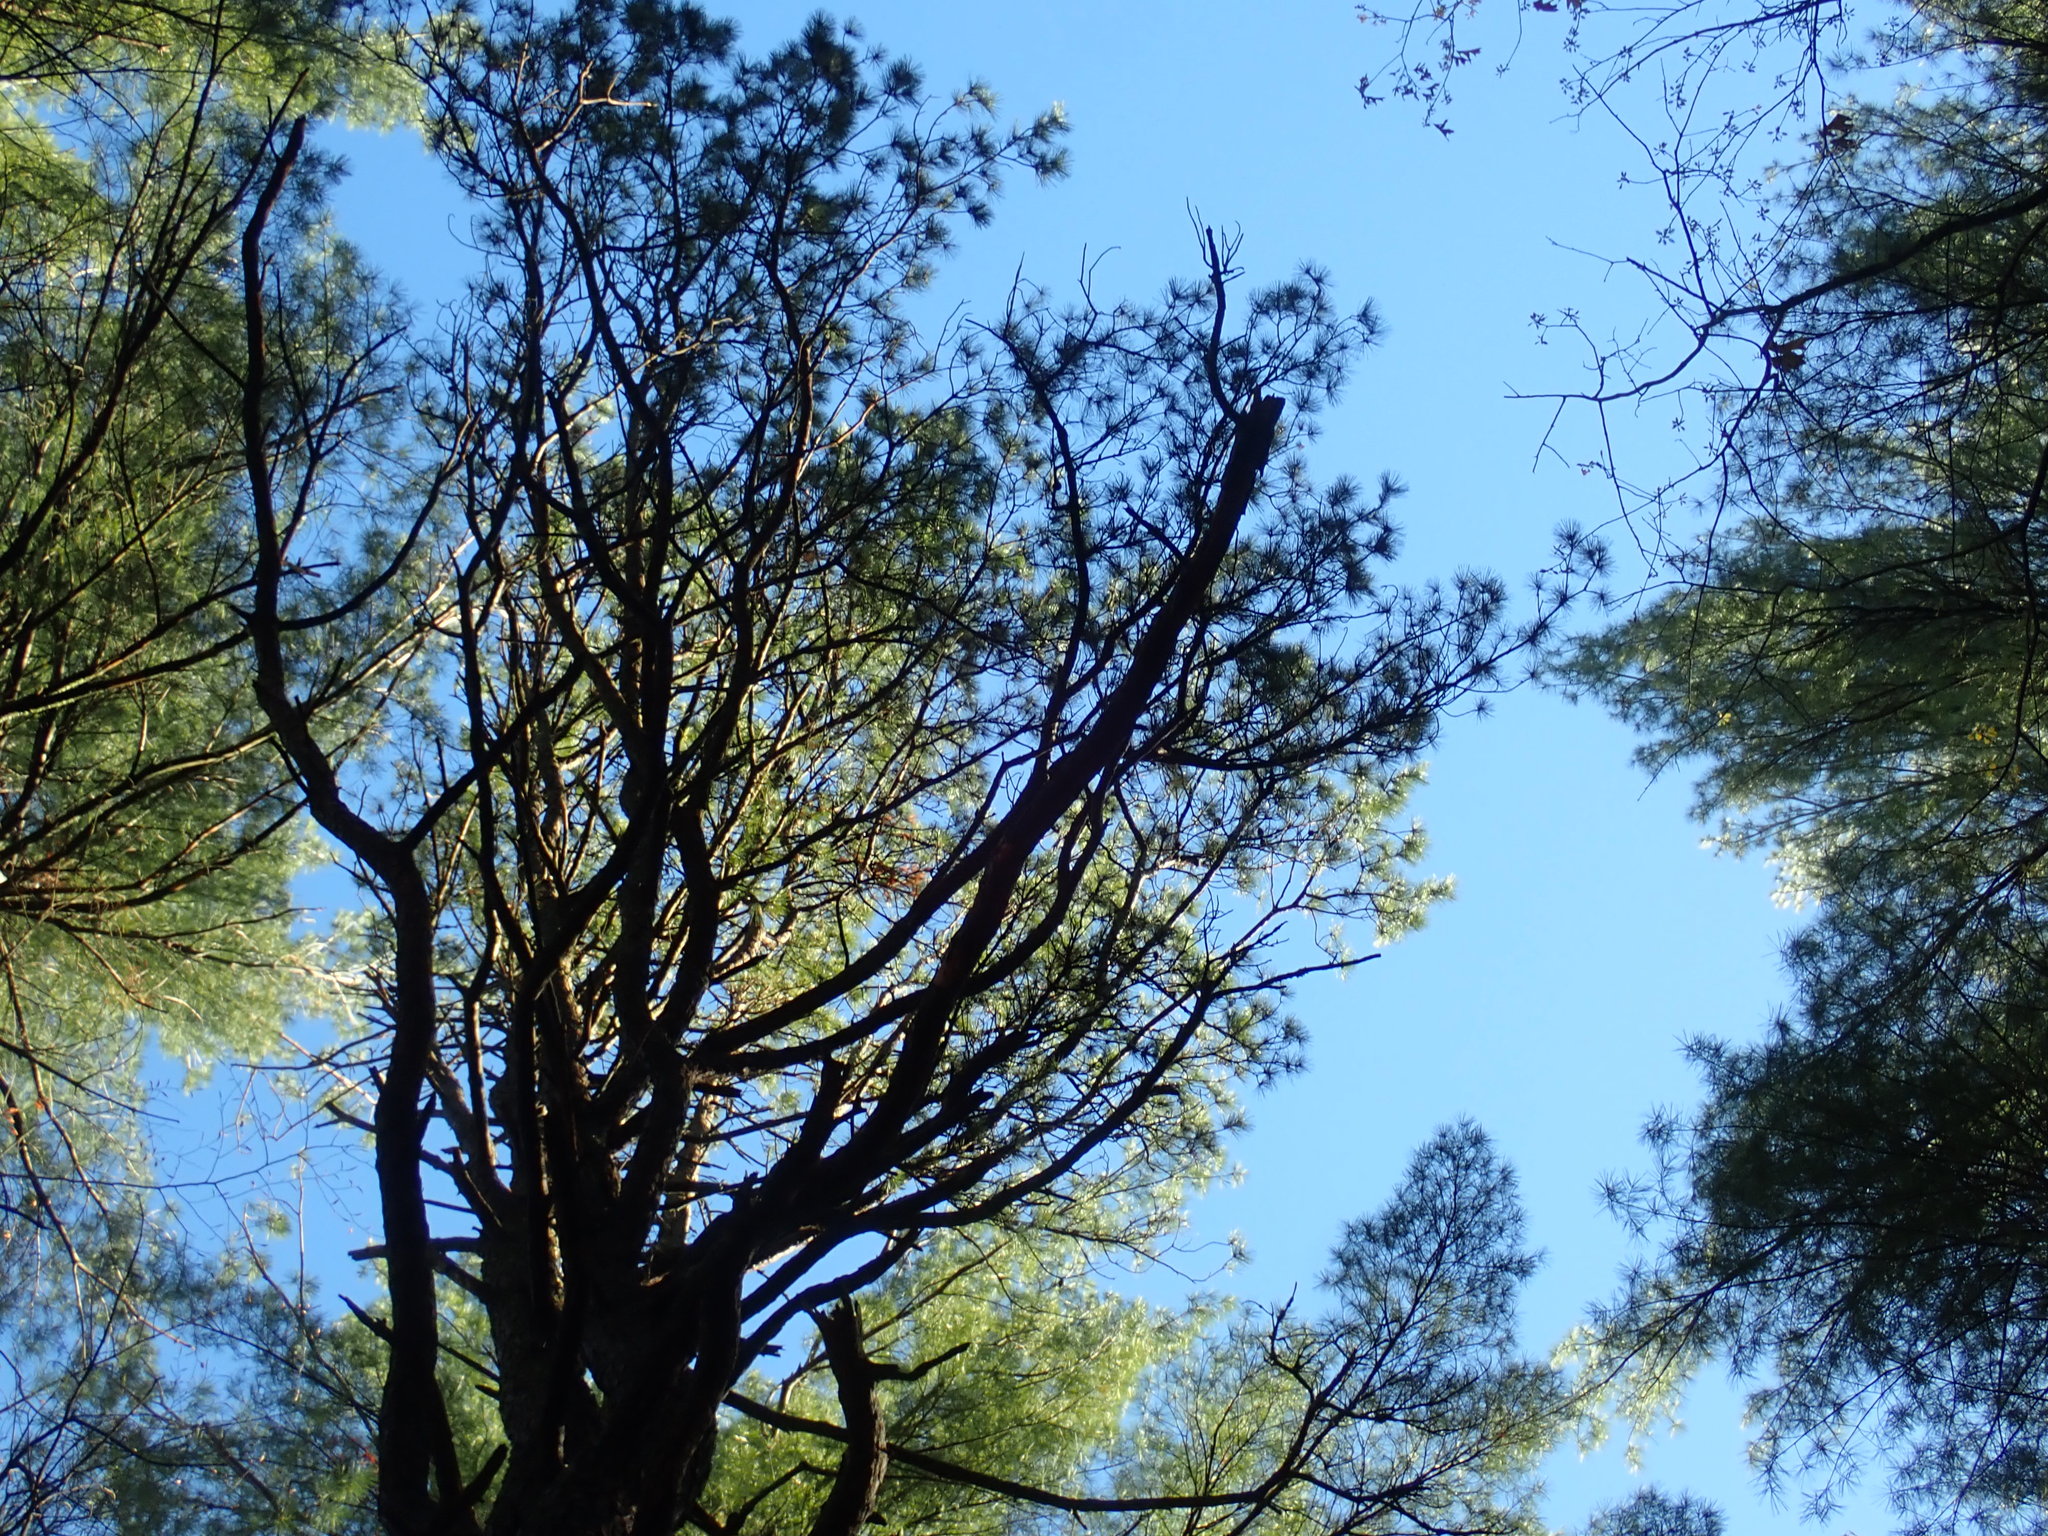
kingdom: Plantae
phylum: Tracheophyta
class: Pinopsida
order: Pinales
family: Pinaceae
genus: Pinus
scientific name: Pinus rigida
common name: Pitch pine
